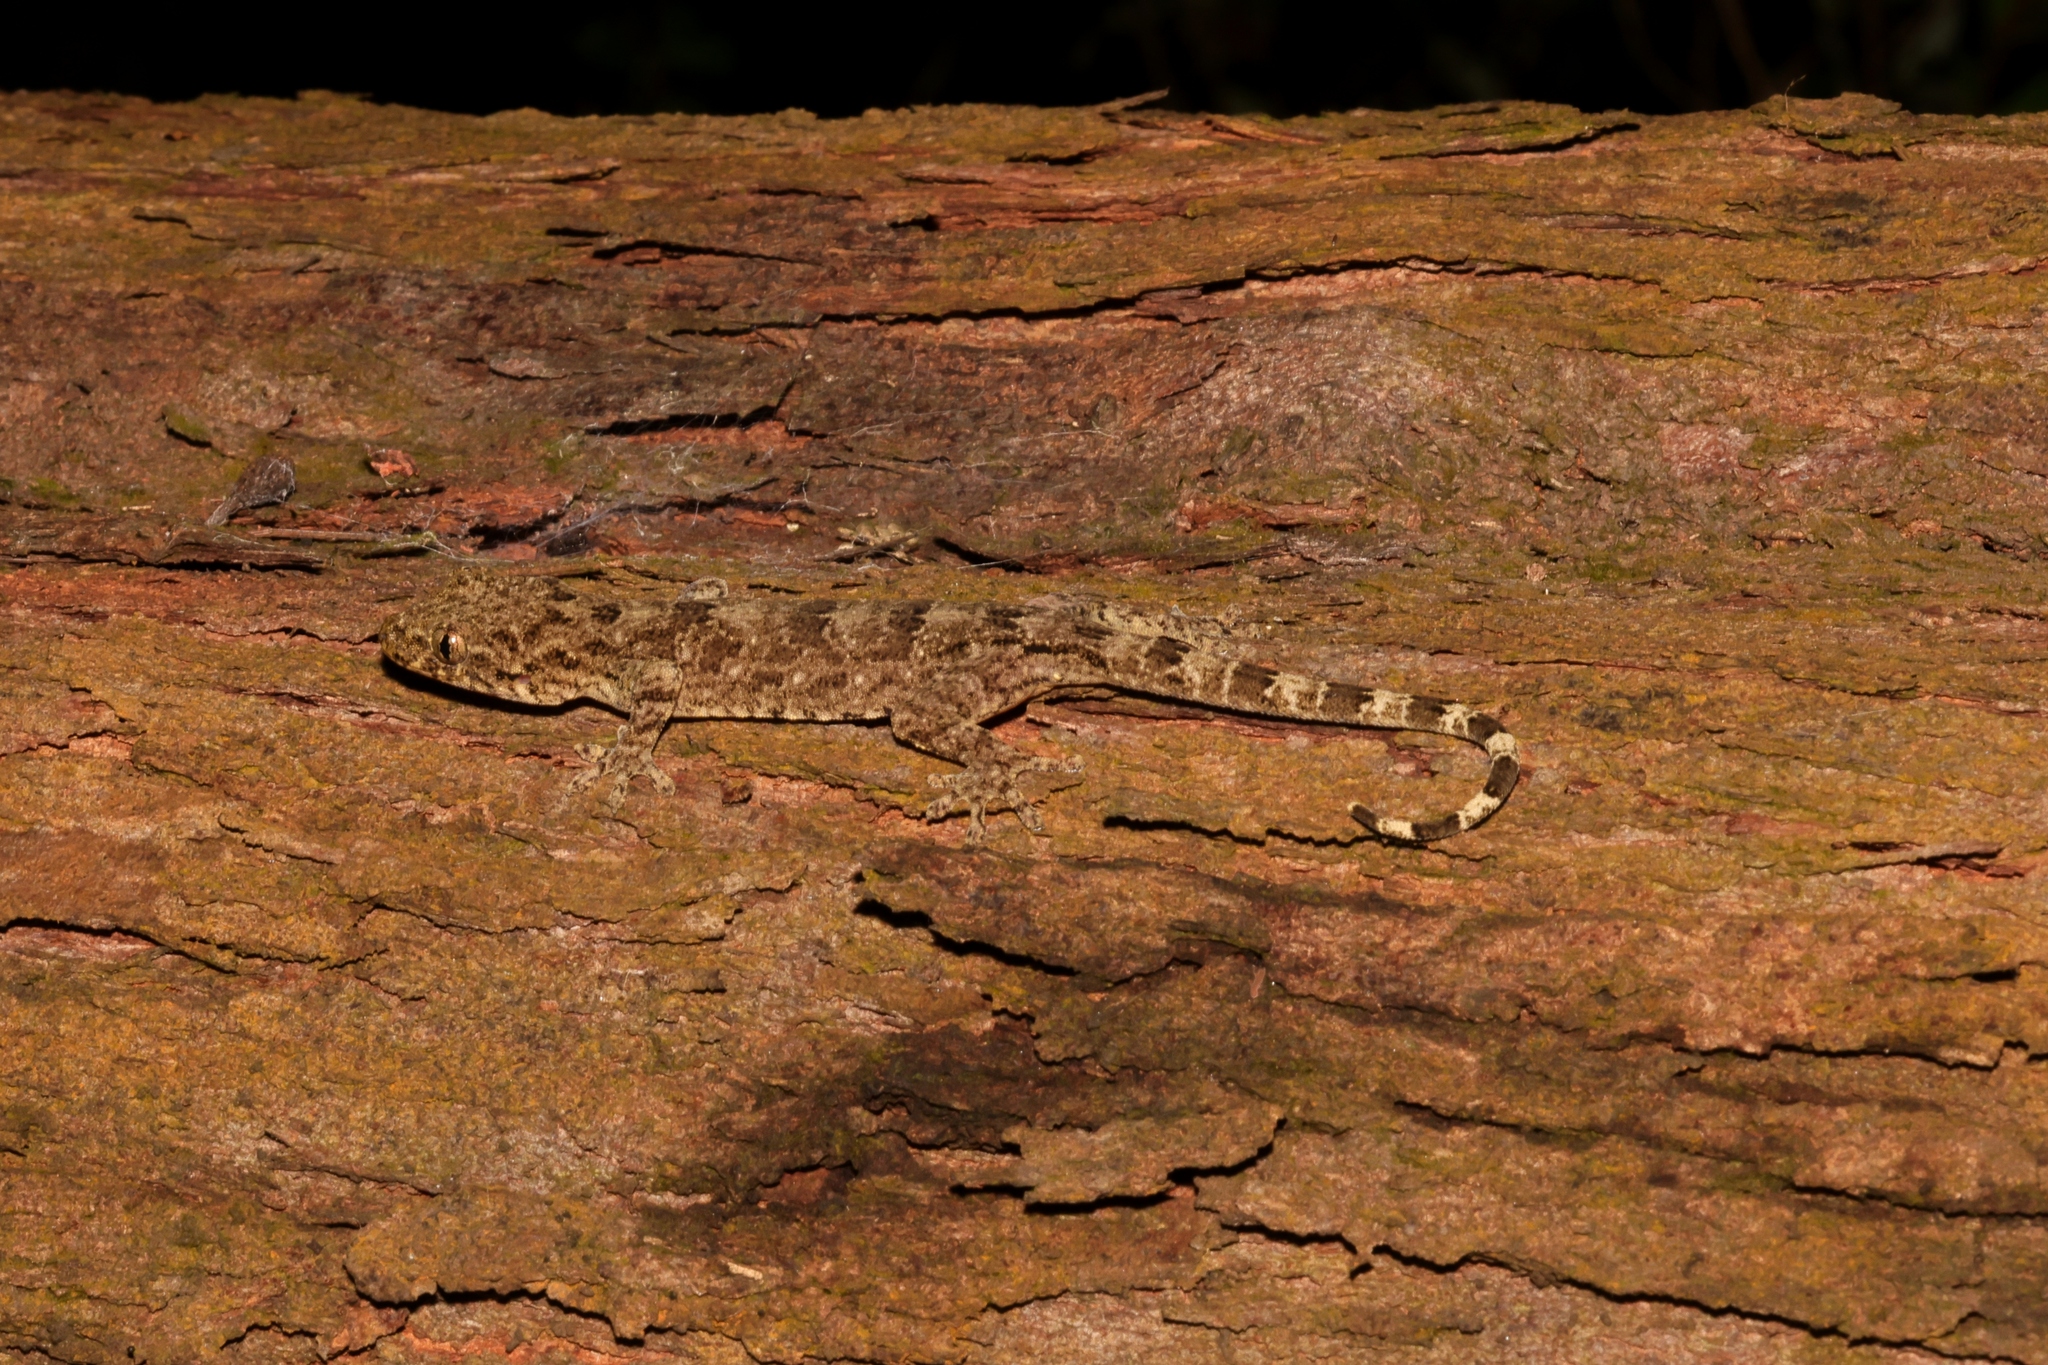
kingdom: Animalia
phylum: Chordata
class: Squamata
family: Gekkonidae
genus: Gekko
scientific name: Gekko chinensis
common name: Gray's chinese gecko
